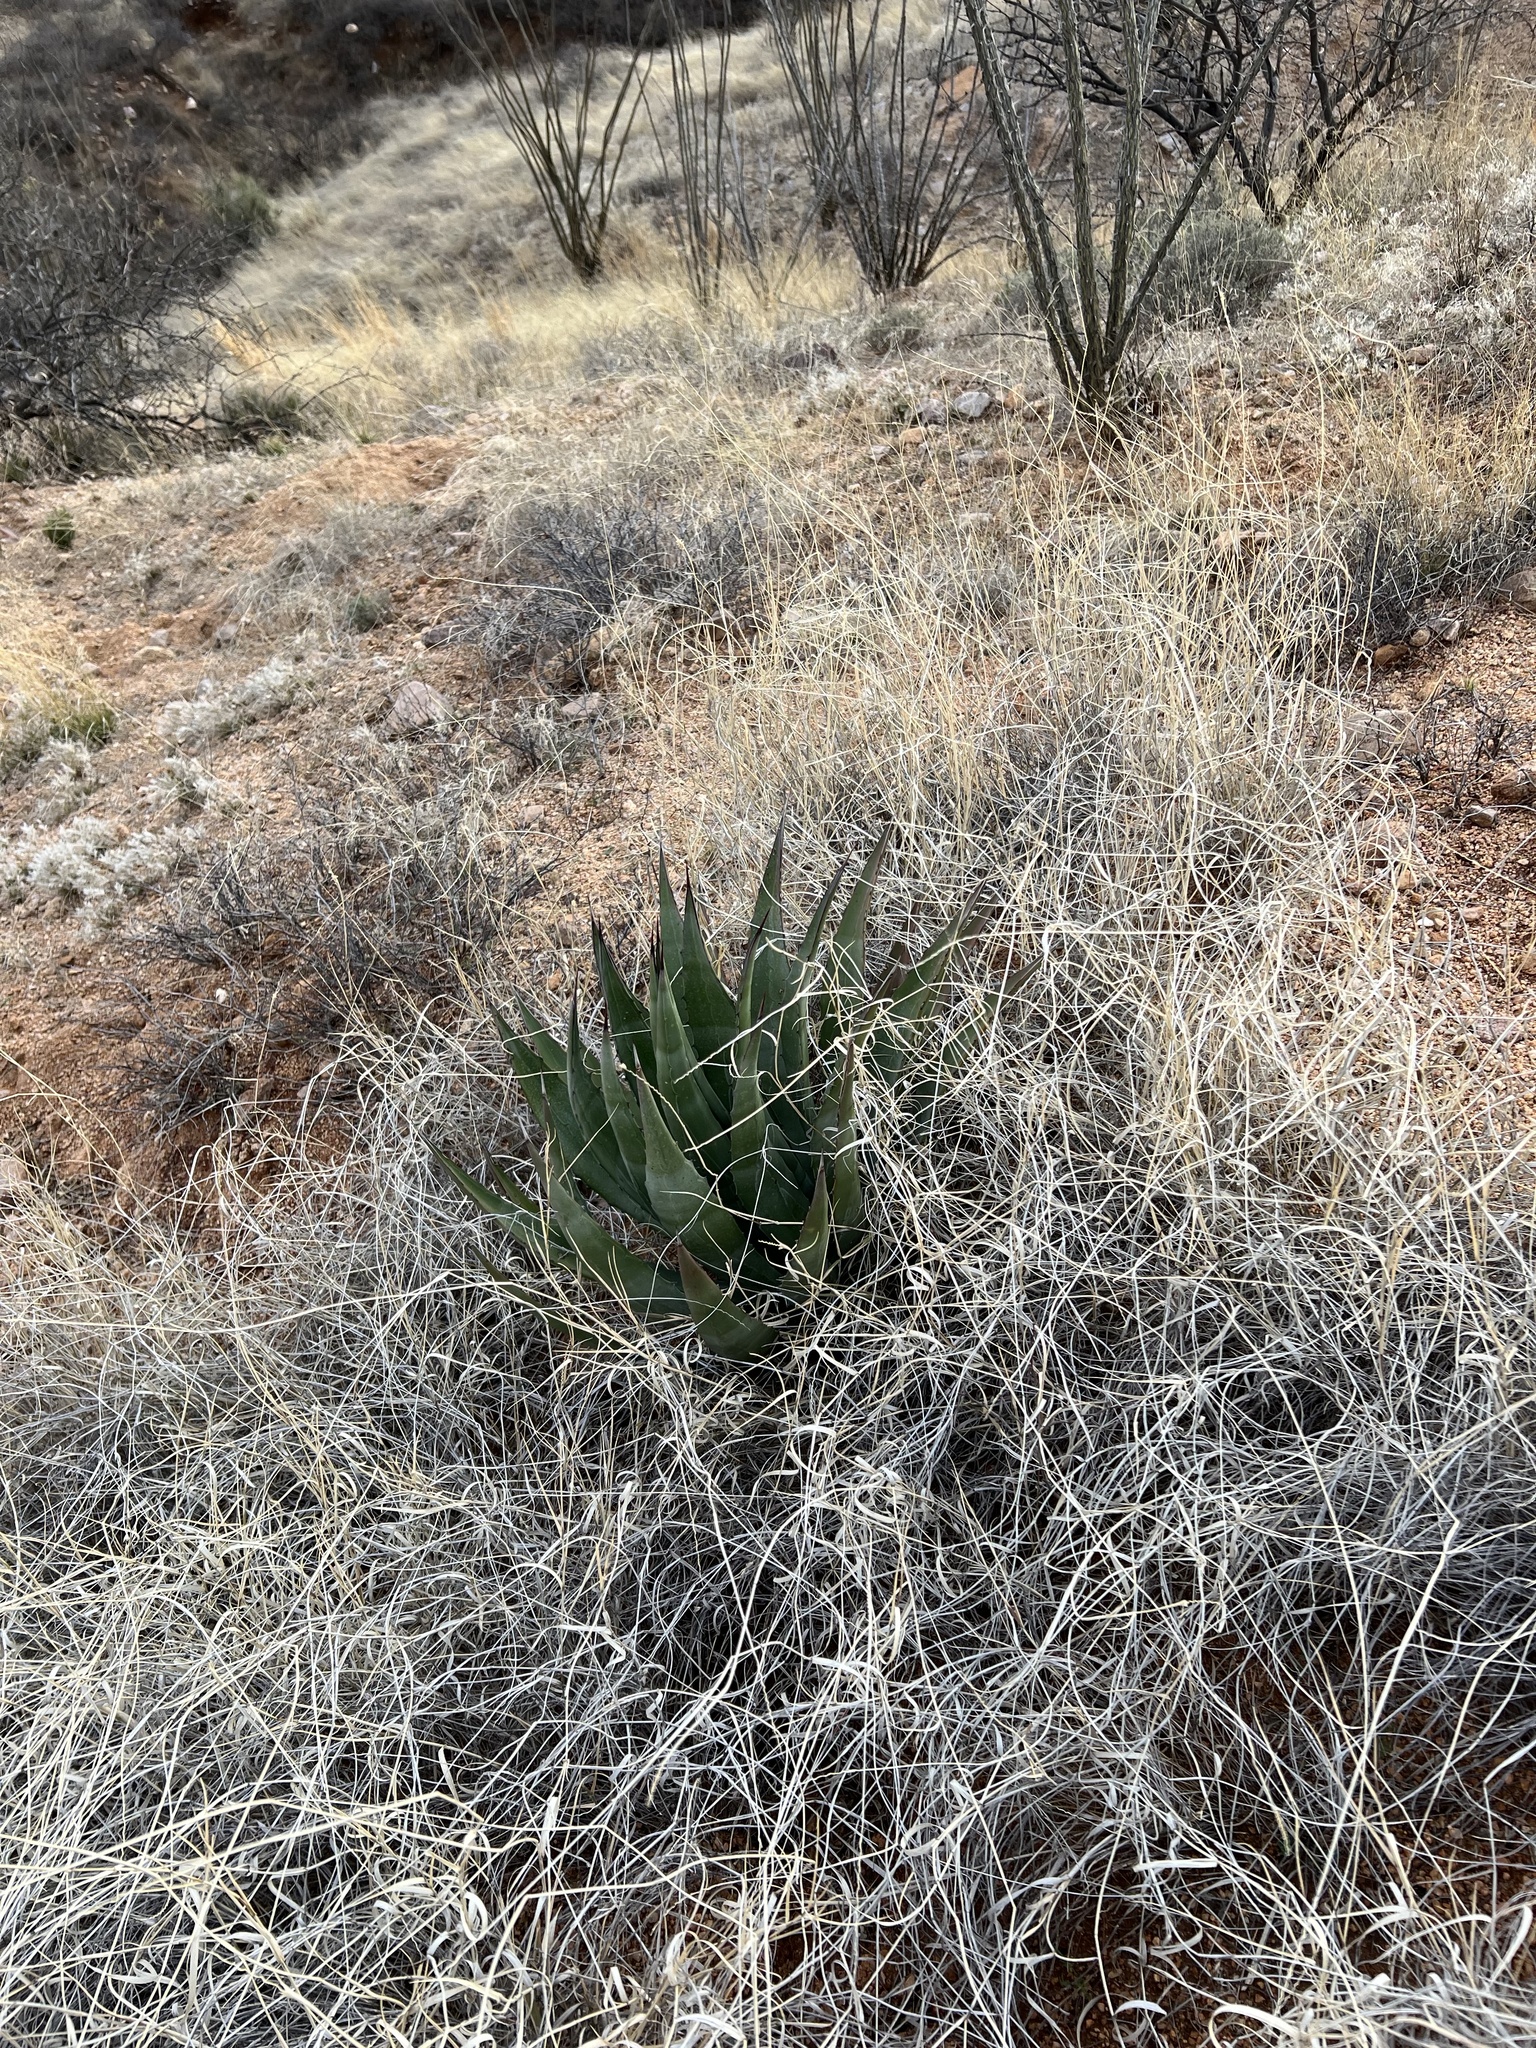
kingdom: Plantae
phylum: Tracheophyta
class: Liliopsida
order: Asparagales
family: Asparagaceae
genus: Agave
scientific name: Agave palmeri
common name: Palmer agave
